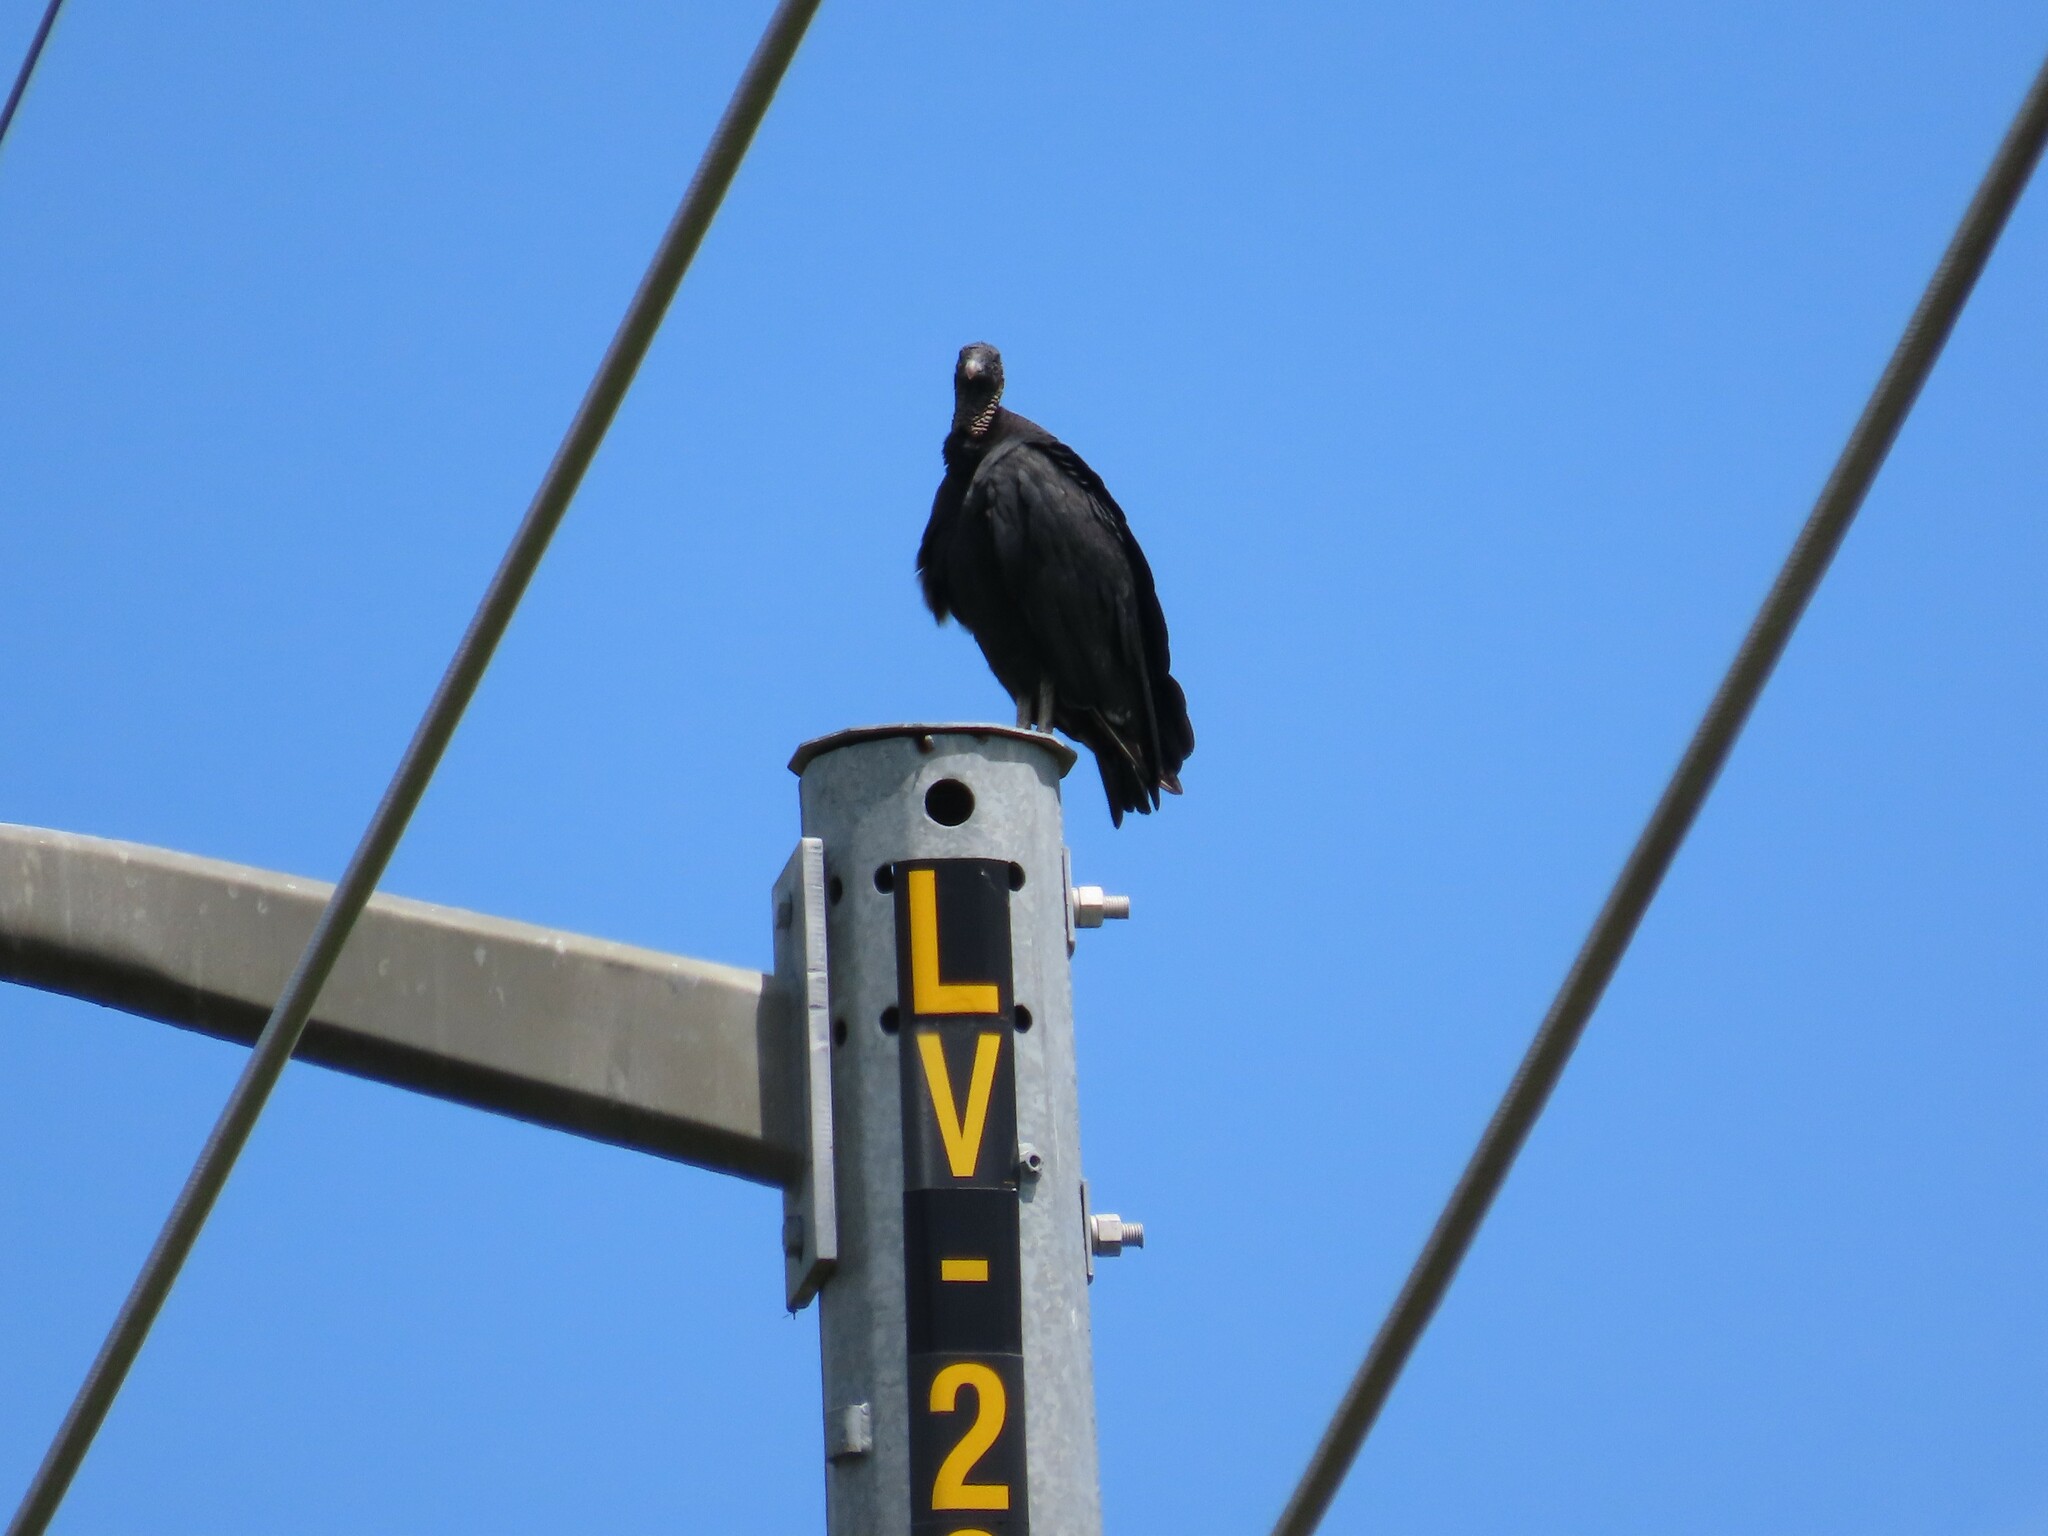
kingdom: Animalia
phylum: Chordata
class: Aves
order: Accipitriformes
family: Cathartidae
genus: Coragyps
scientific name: Coragyps atratus
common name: Black vulture
